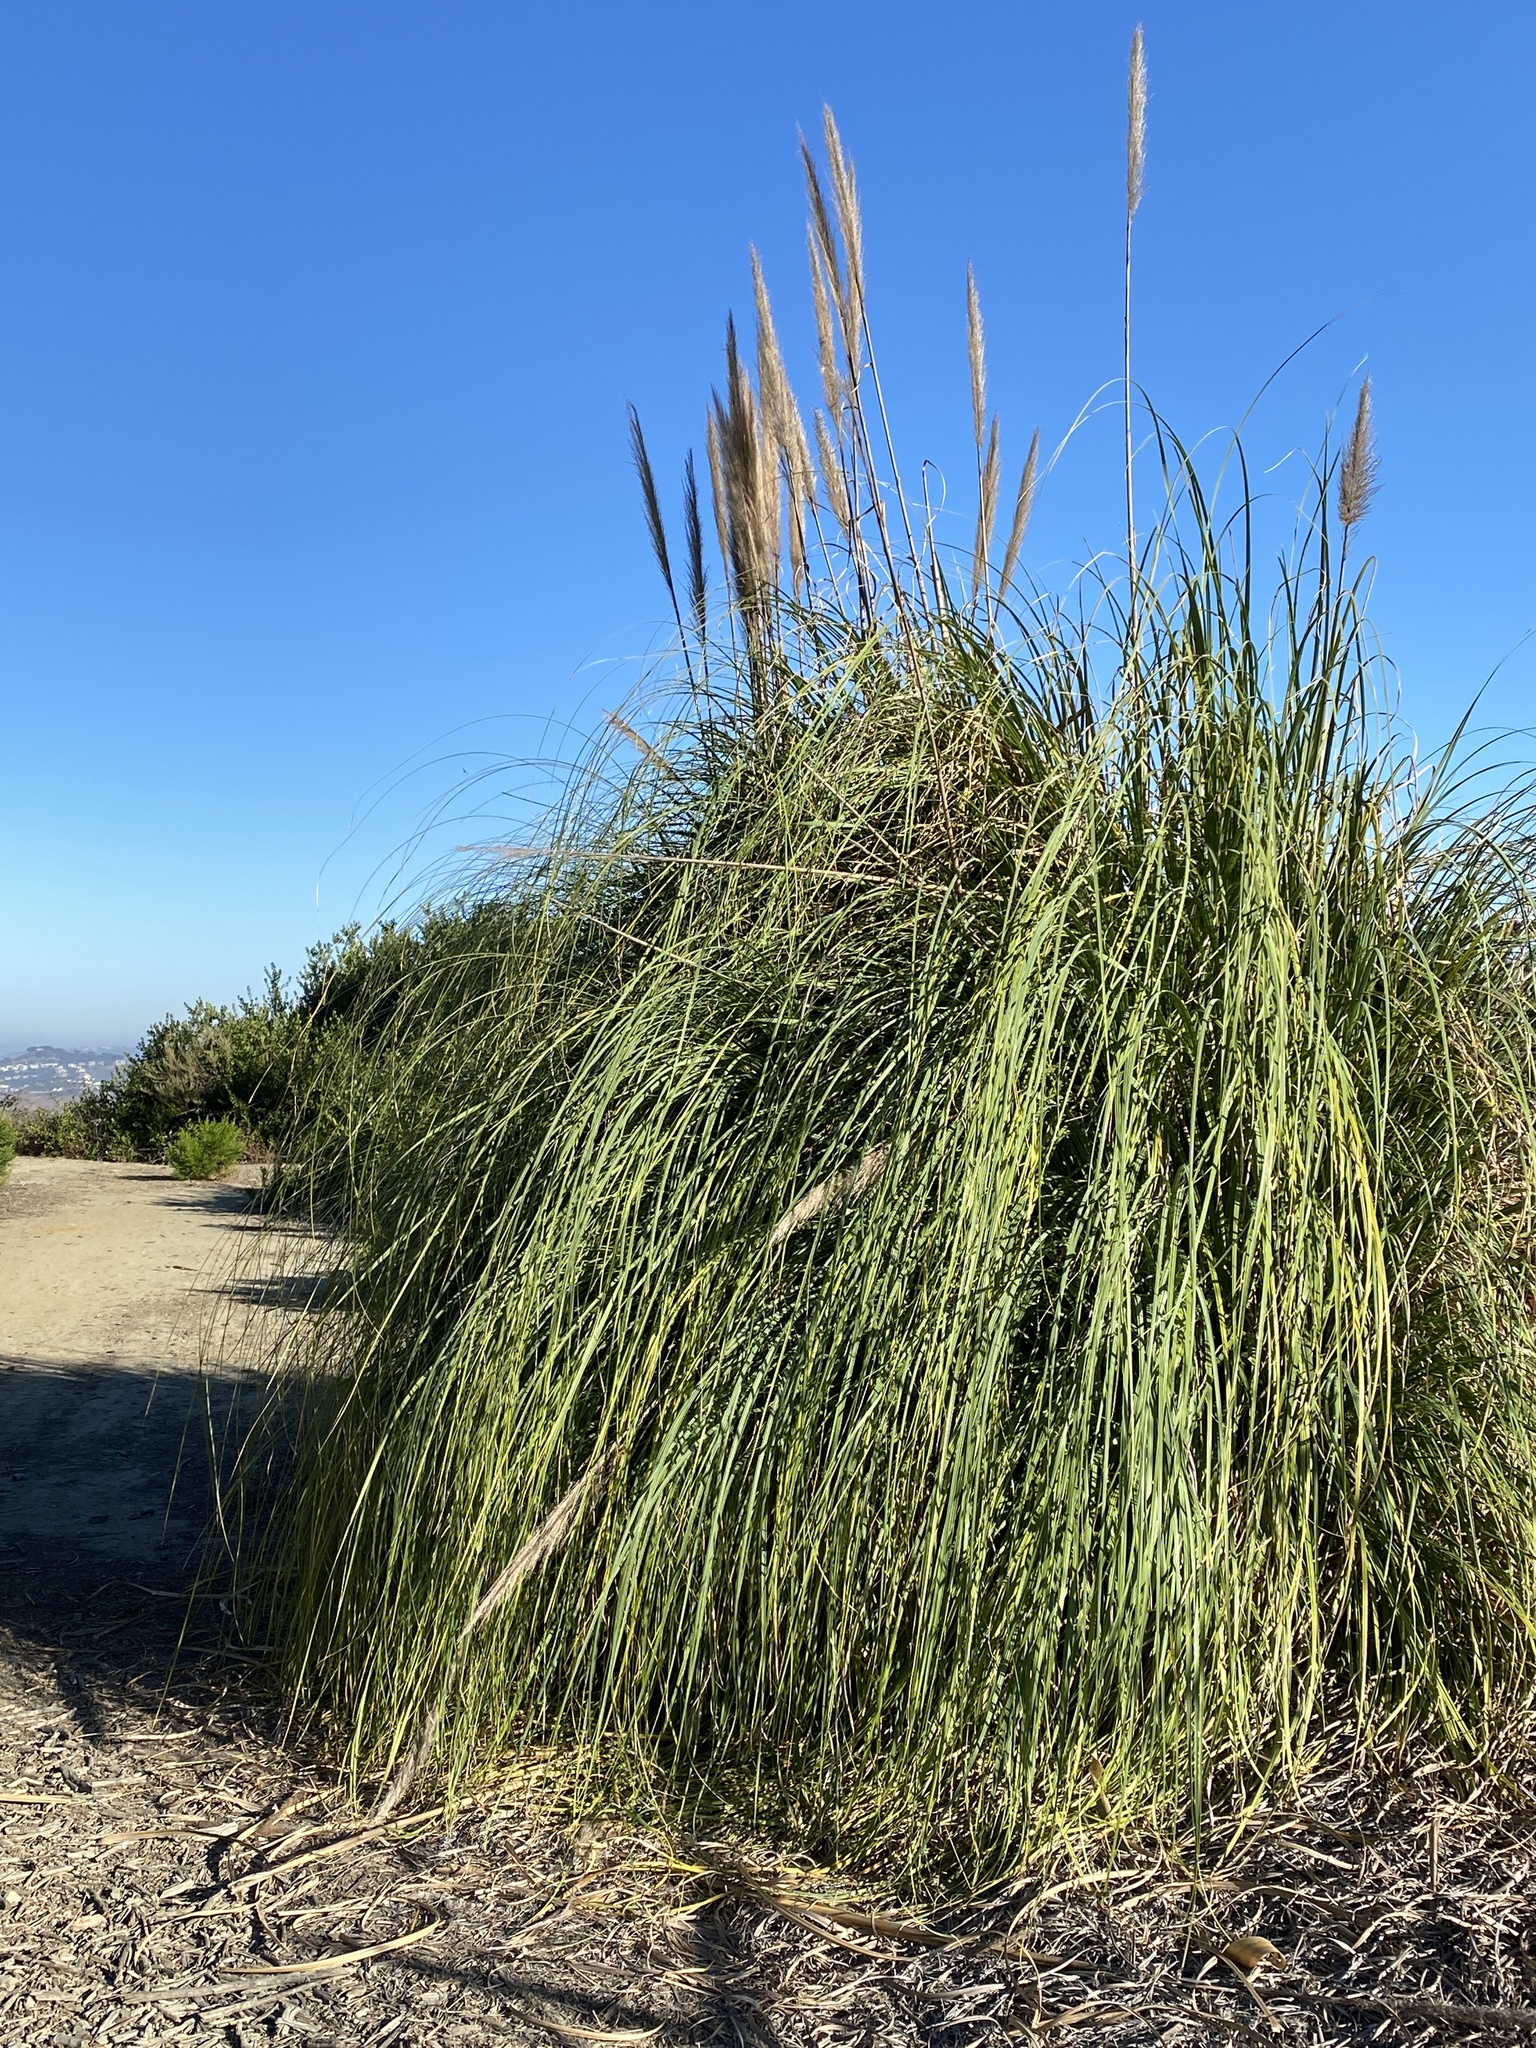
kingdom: Plantae
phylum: Tracheophyta
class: Liliopsida
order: Poales
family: Poaceae
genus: Cortaderia
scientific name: Cortaderia selloana
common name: Uruguayan pampas grass
